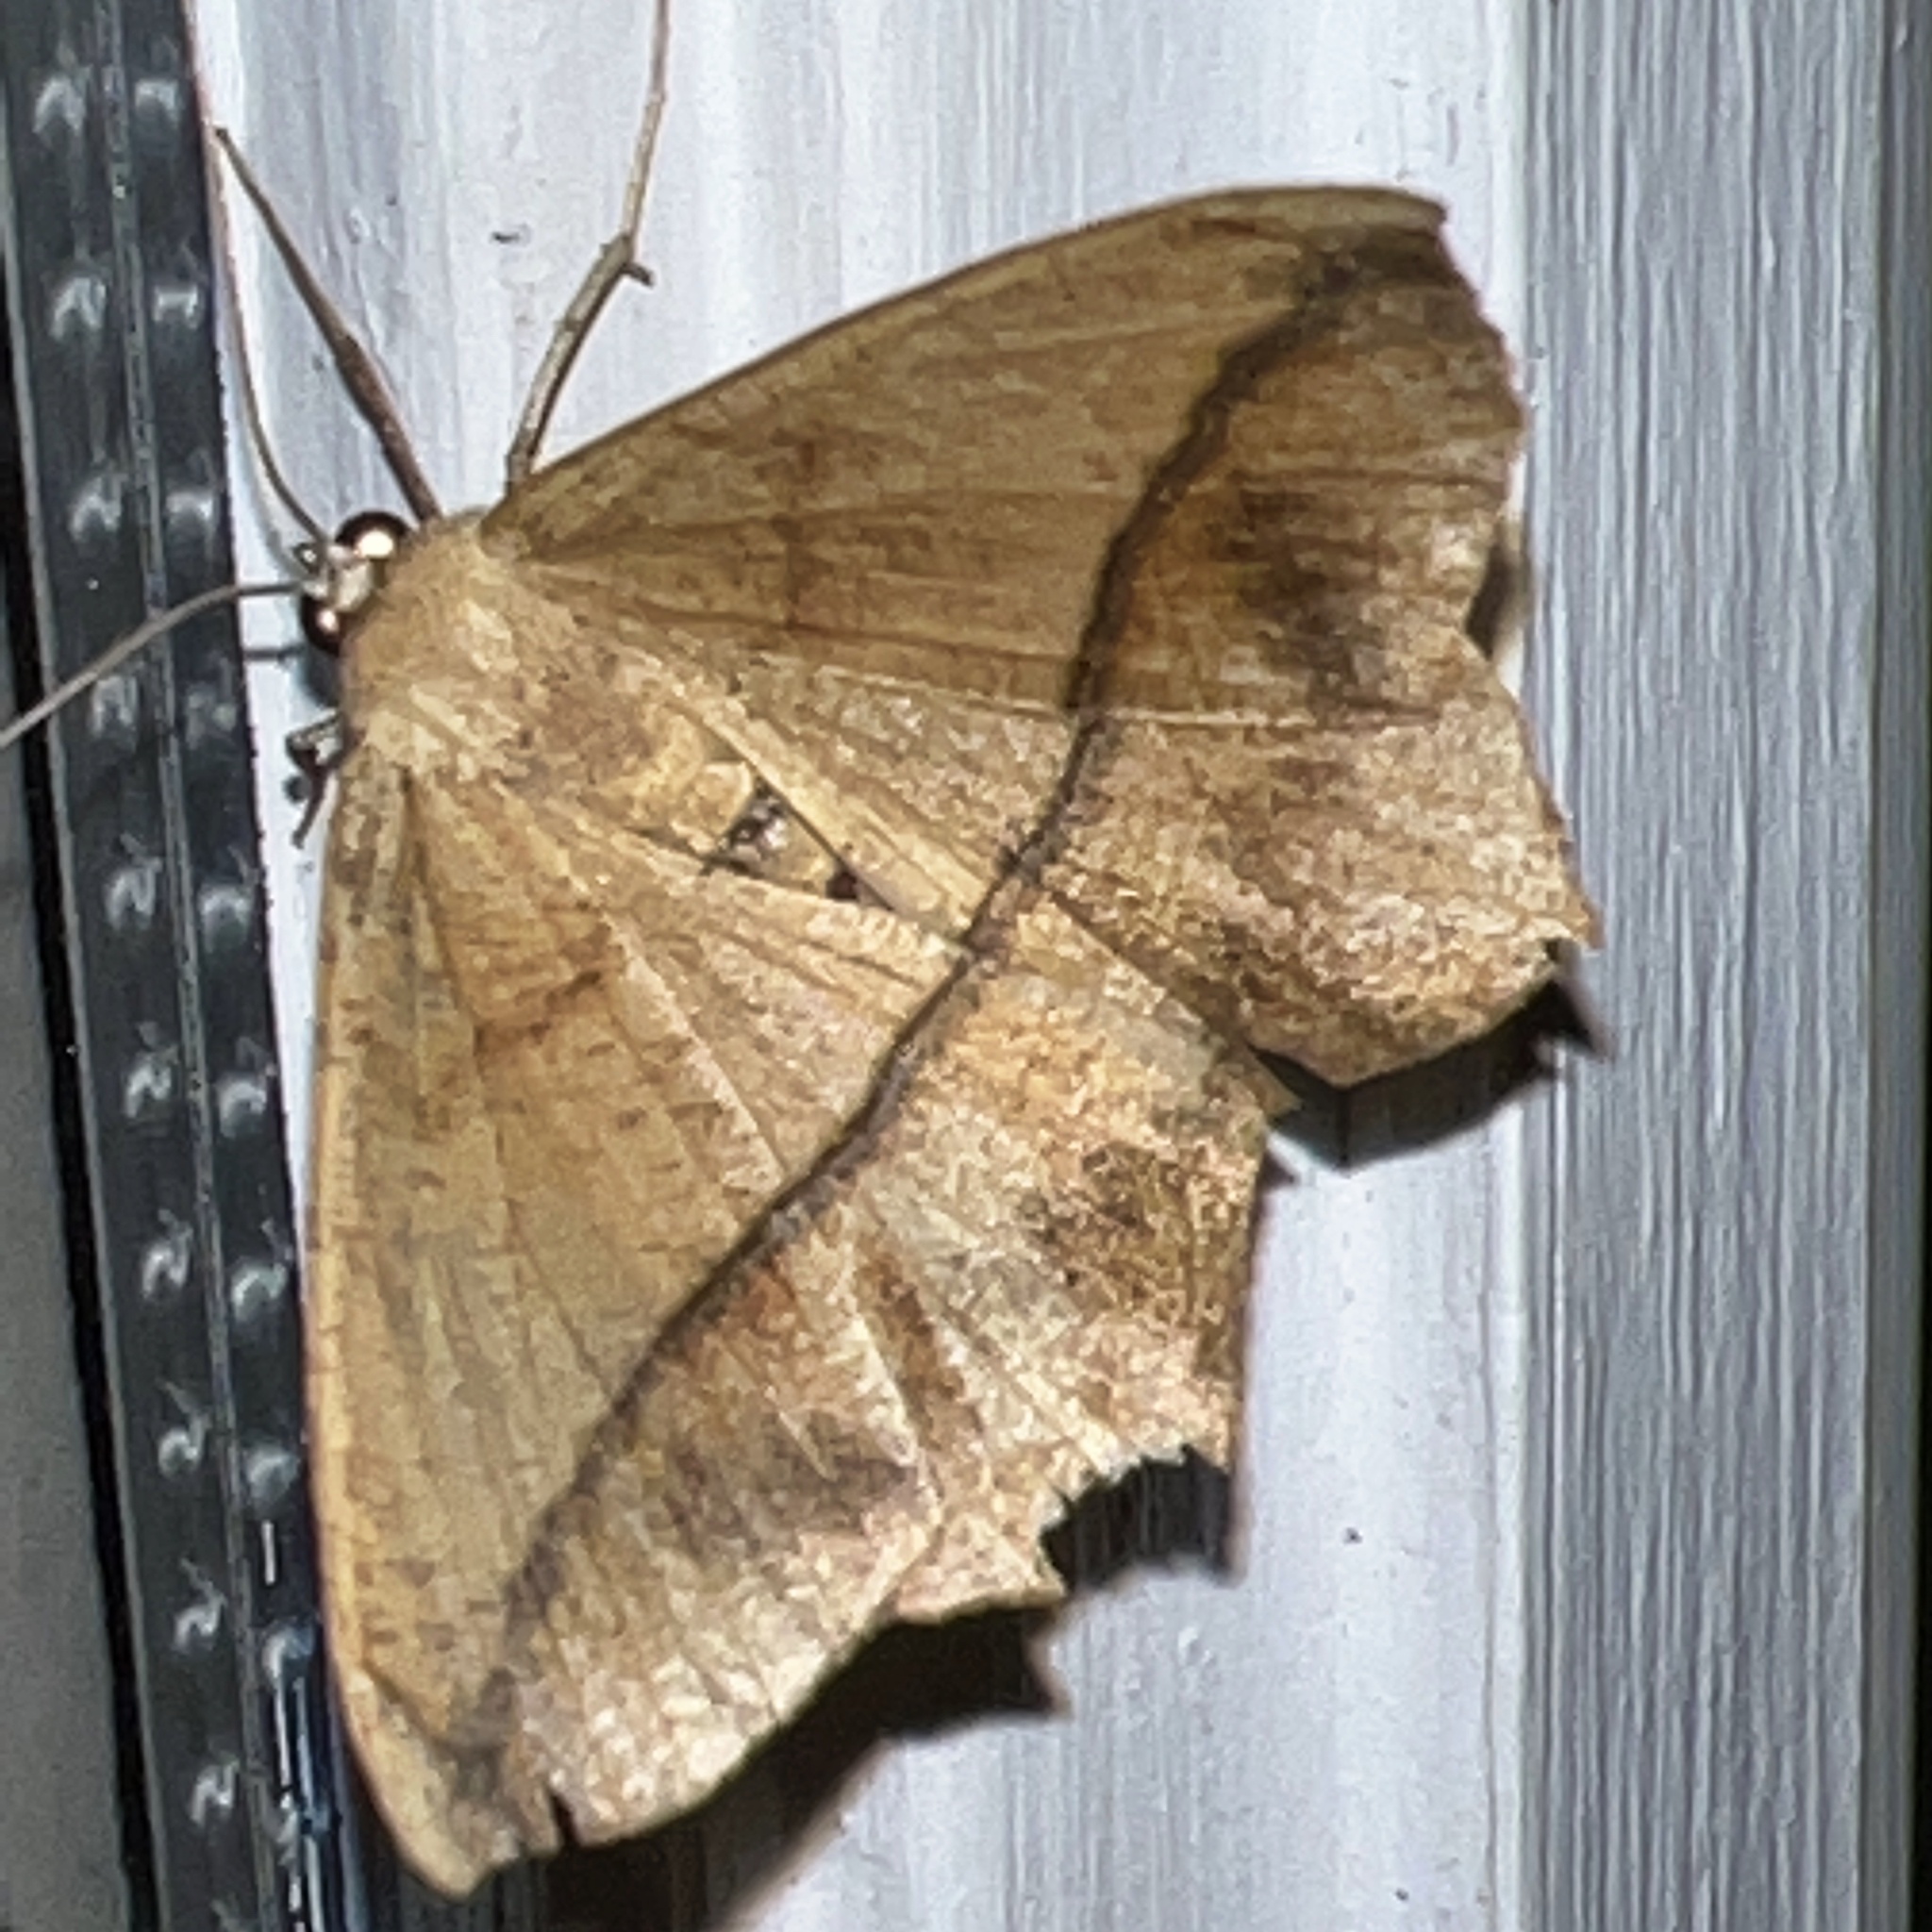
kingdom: Animalia
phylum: Arthropoda
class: Insecta
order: Lepidoptera
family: Geometridae
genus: Prochoerodes
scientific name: Prochoerodes lineola
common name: Large maple spanworm
